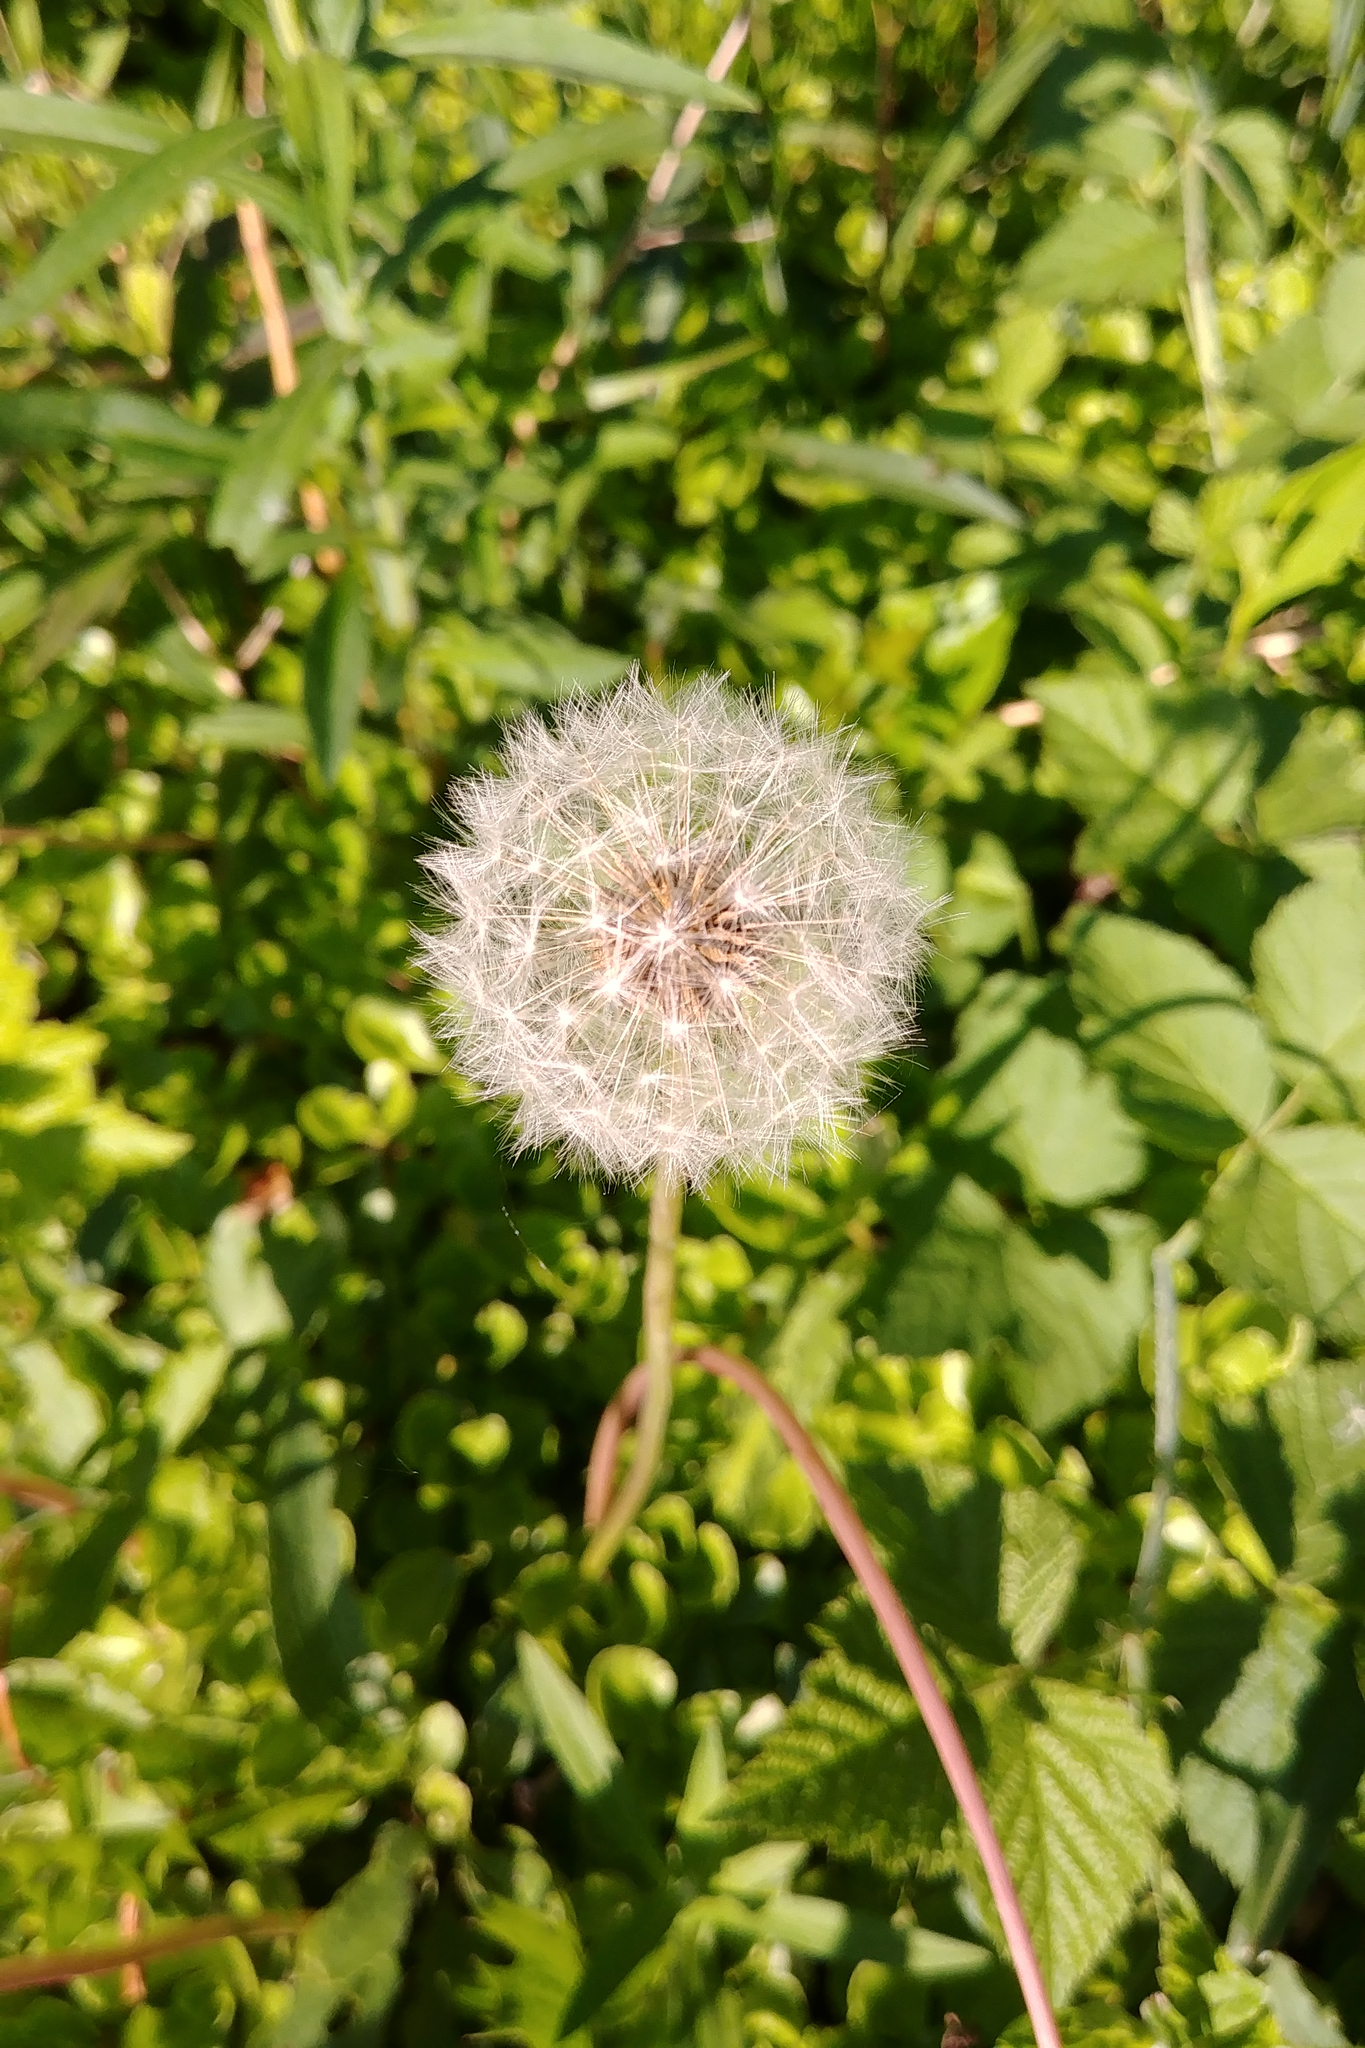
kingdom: Plantae
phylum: Tracheophyta
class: Magnoliopsida
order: Asterales
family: Asteraceae
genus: Taraxacum
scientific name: Taraxacum officinale
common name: Common dandelion
